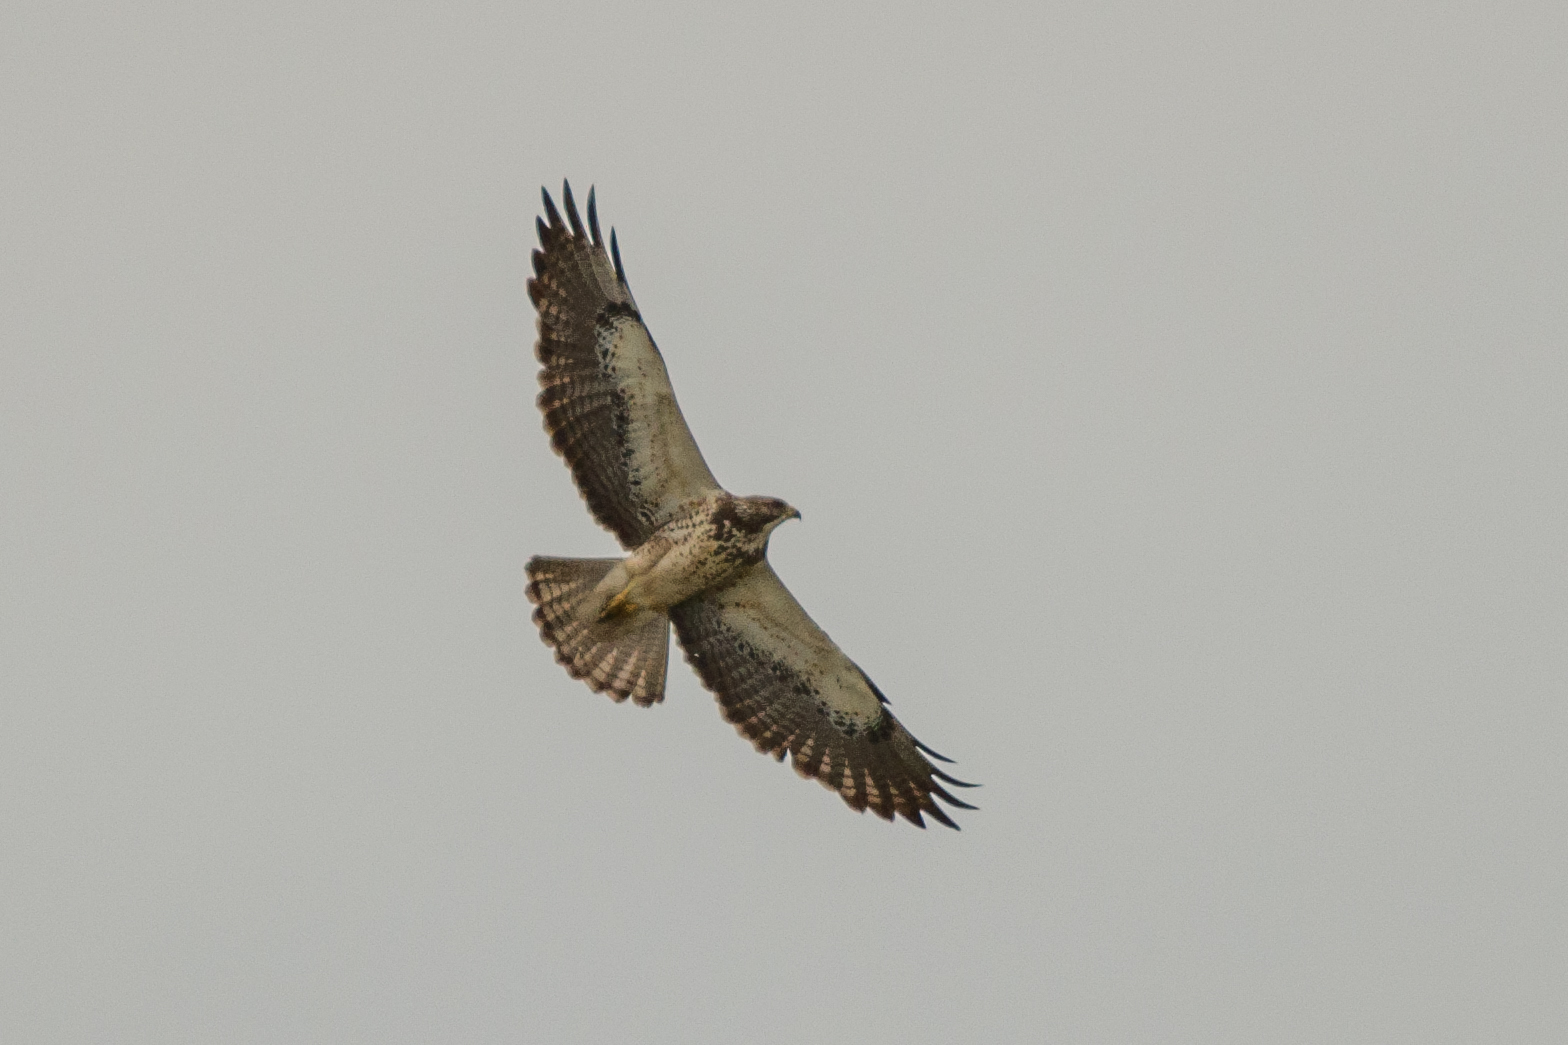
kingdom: Animalia
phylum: Chordata
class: Aves
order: Accipitriformes
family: Accipitridae
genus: Buteo
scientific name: Buteo swainsoni
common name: Swainson's hawk
